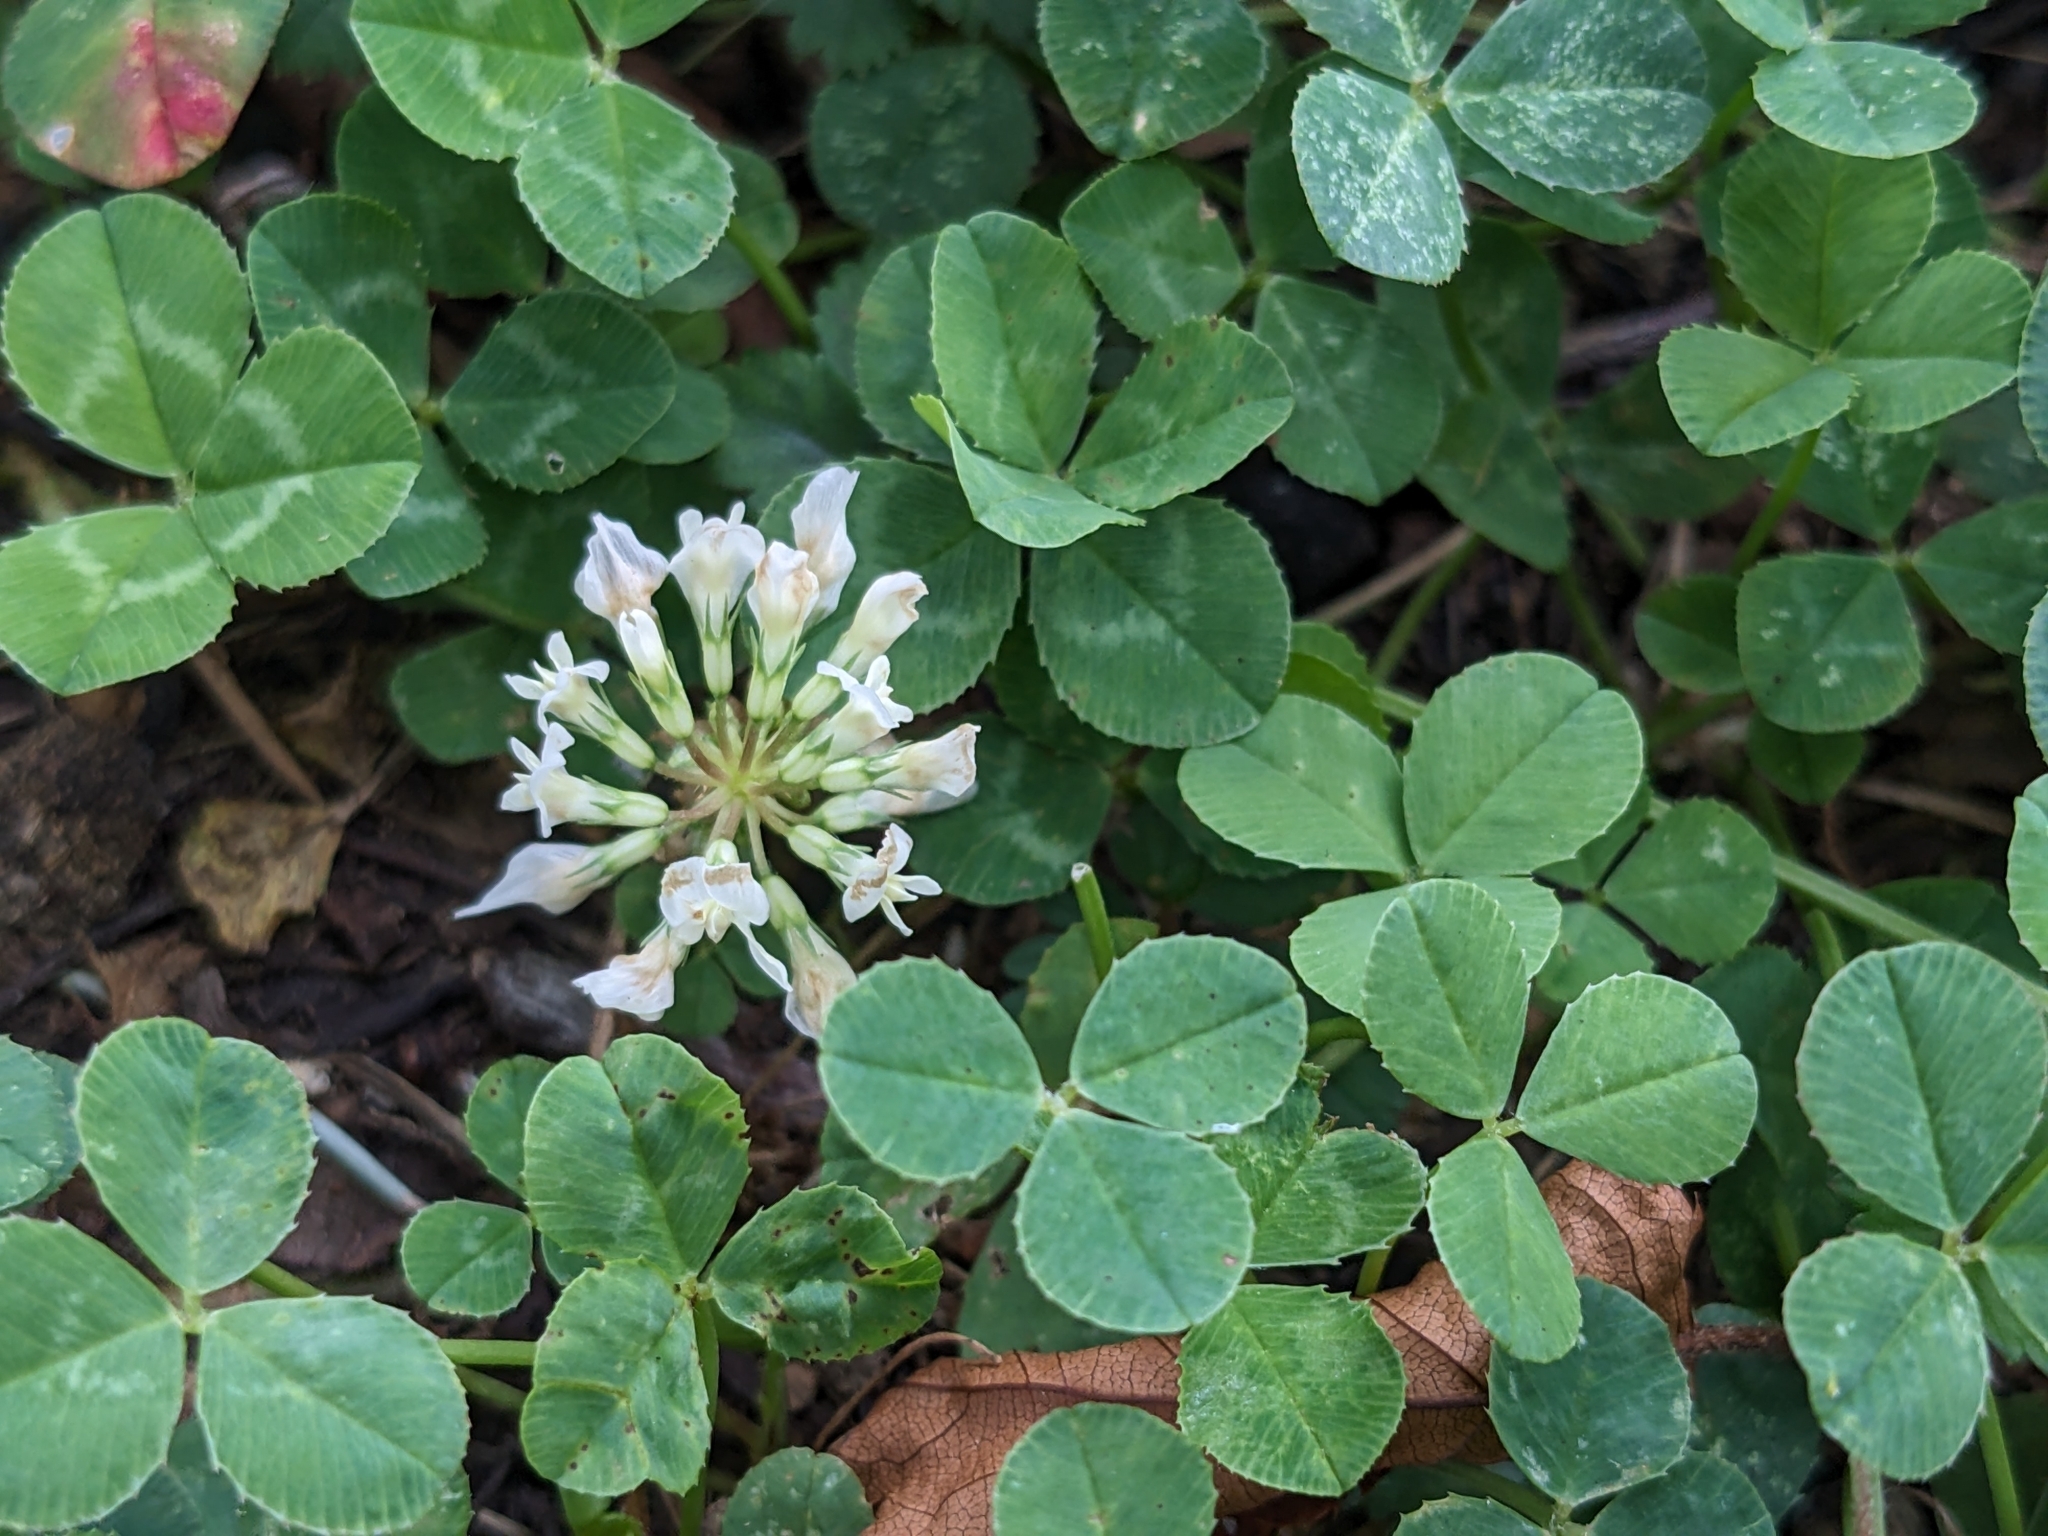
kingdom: Plantae
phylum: Tracheophyta
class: Magnoliopsida
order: Fabales
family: Fabaceae
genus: Trifolium
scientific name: Trifolium repens
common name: White clover
